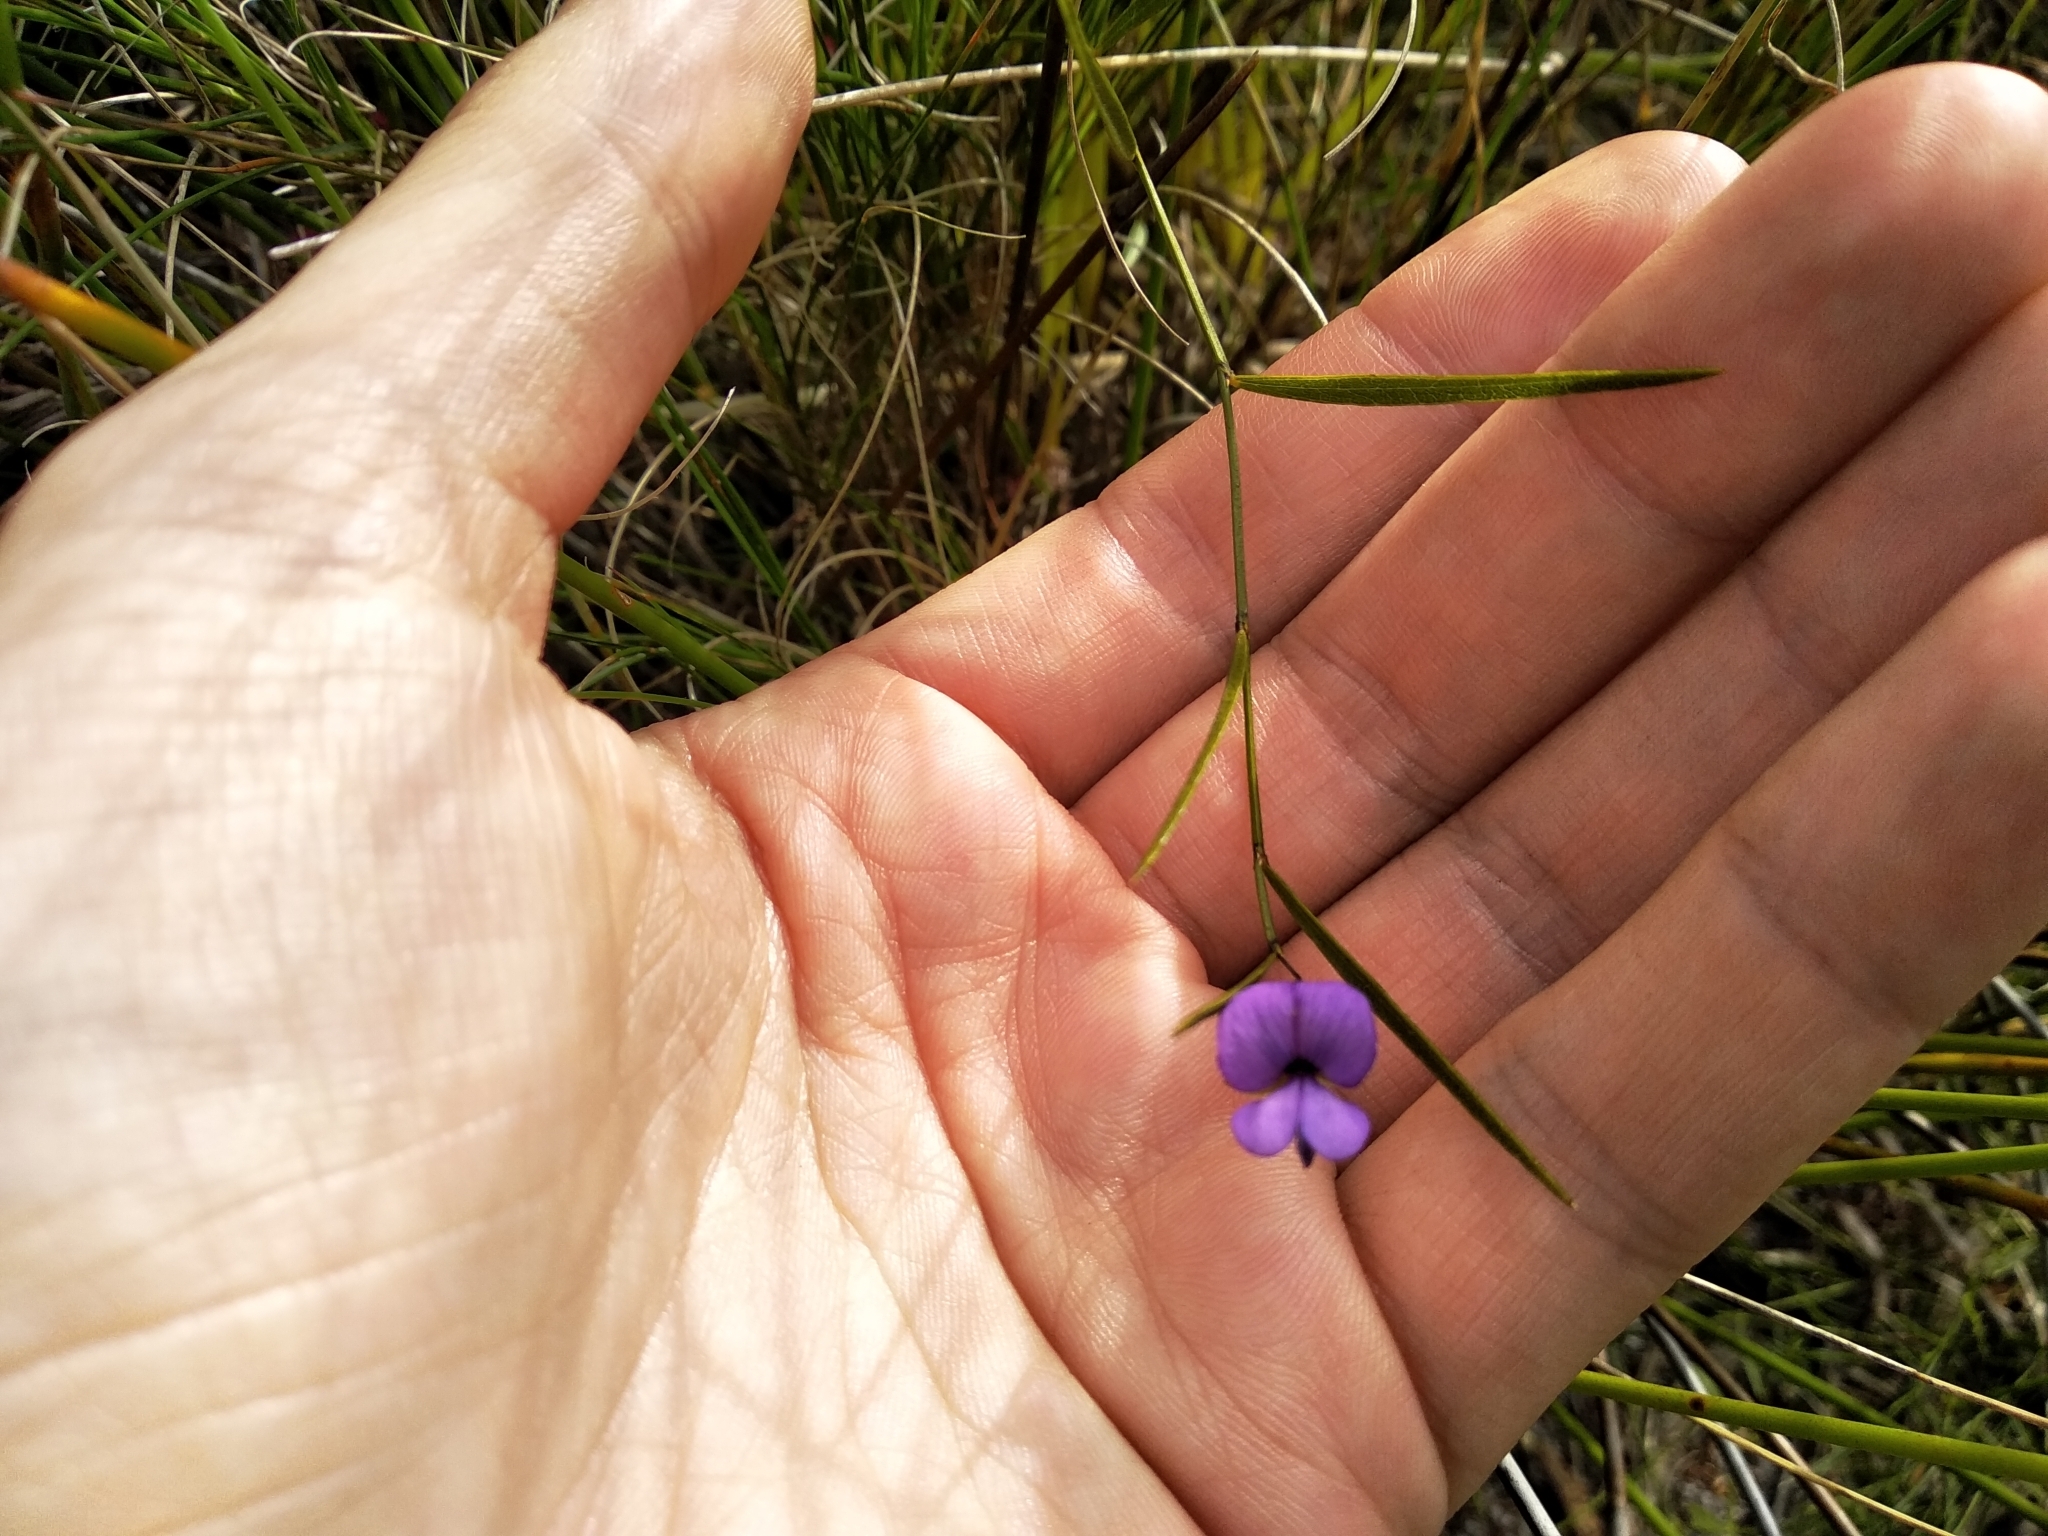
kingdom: Plantae
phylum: Tracheophyta
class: Magnoliopsida
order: Fabales
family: Fabaceae
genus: Psoralea
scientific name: Psoralea laxa
